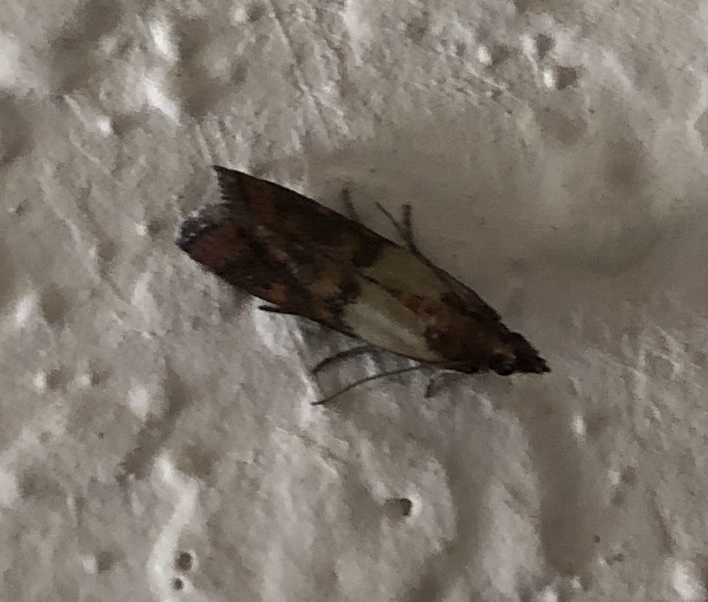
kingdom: Animalia
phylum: Arthropoda
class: Insecta
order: Lepidoptera
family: Pyralidae
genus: Plodia
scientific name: Plodia interpunctella
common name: Indian meal moth
